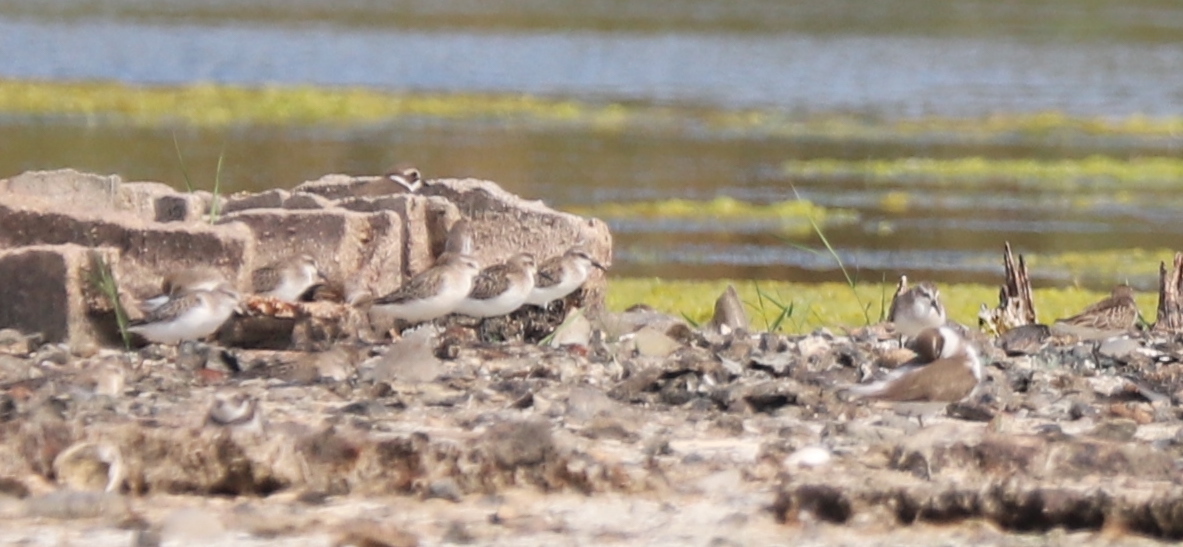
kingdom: Animalia
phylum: Chordata
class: Aves
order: Charadriiformes
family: Scolopacidae
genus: Calidris
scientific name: Calidris pusilla
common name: Semipalmated sandpiper
